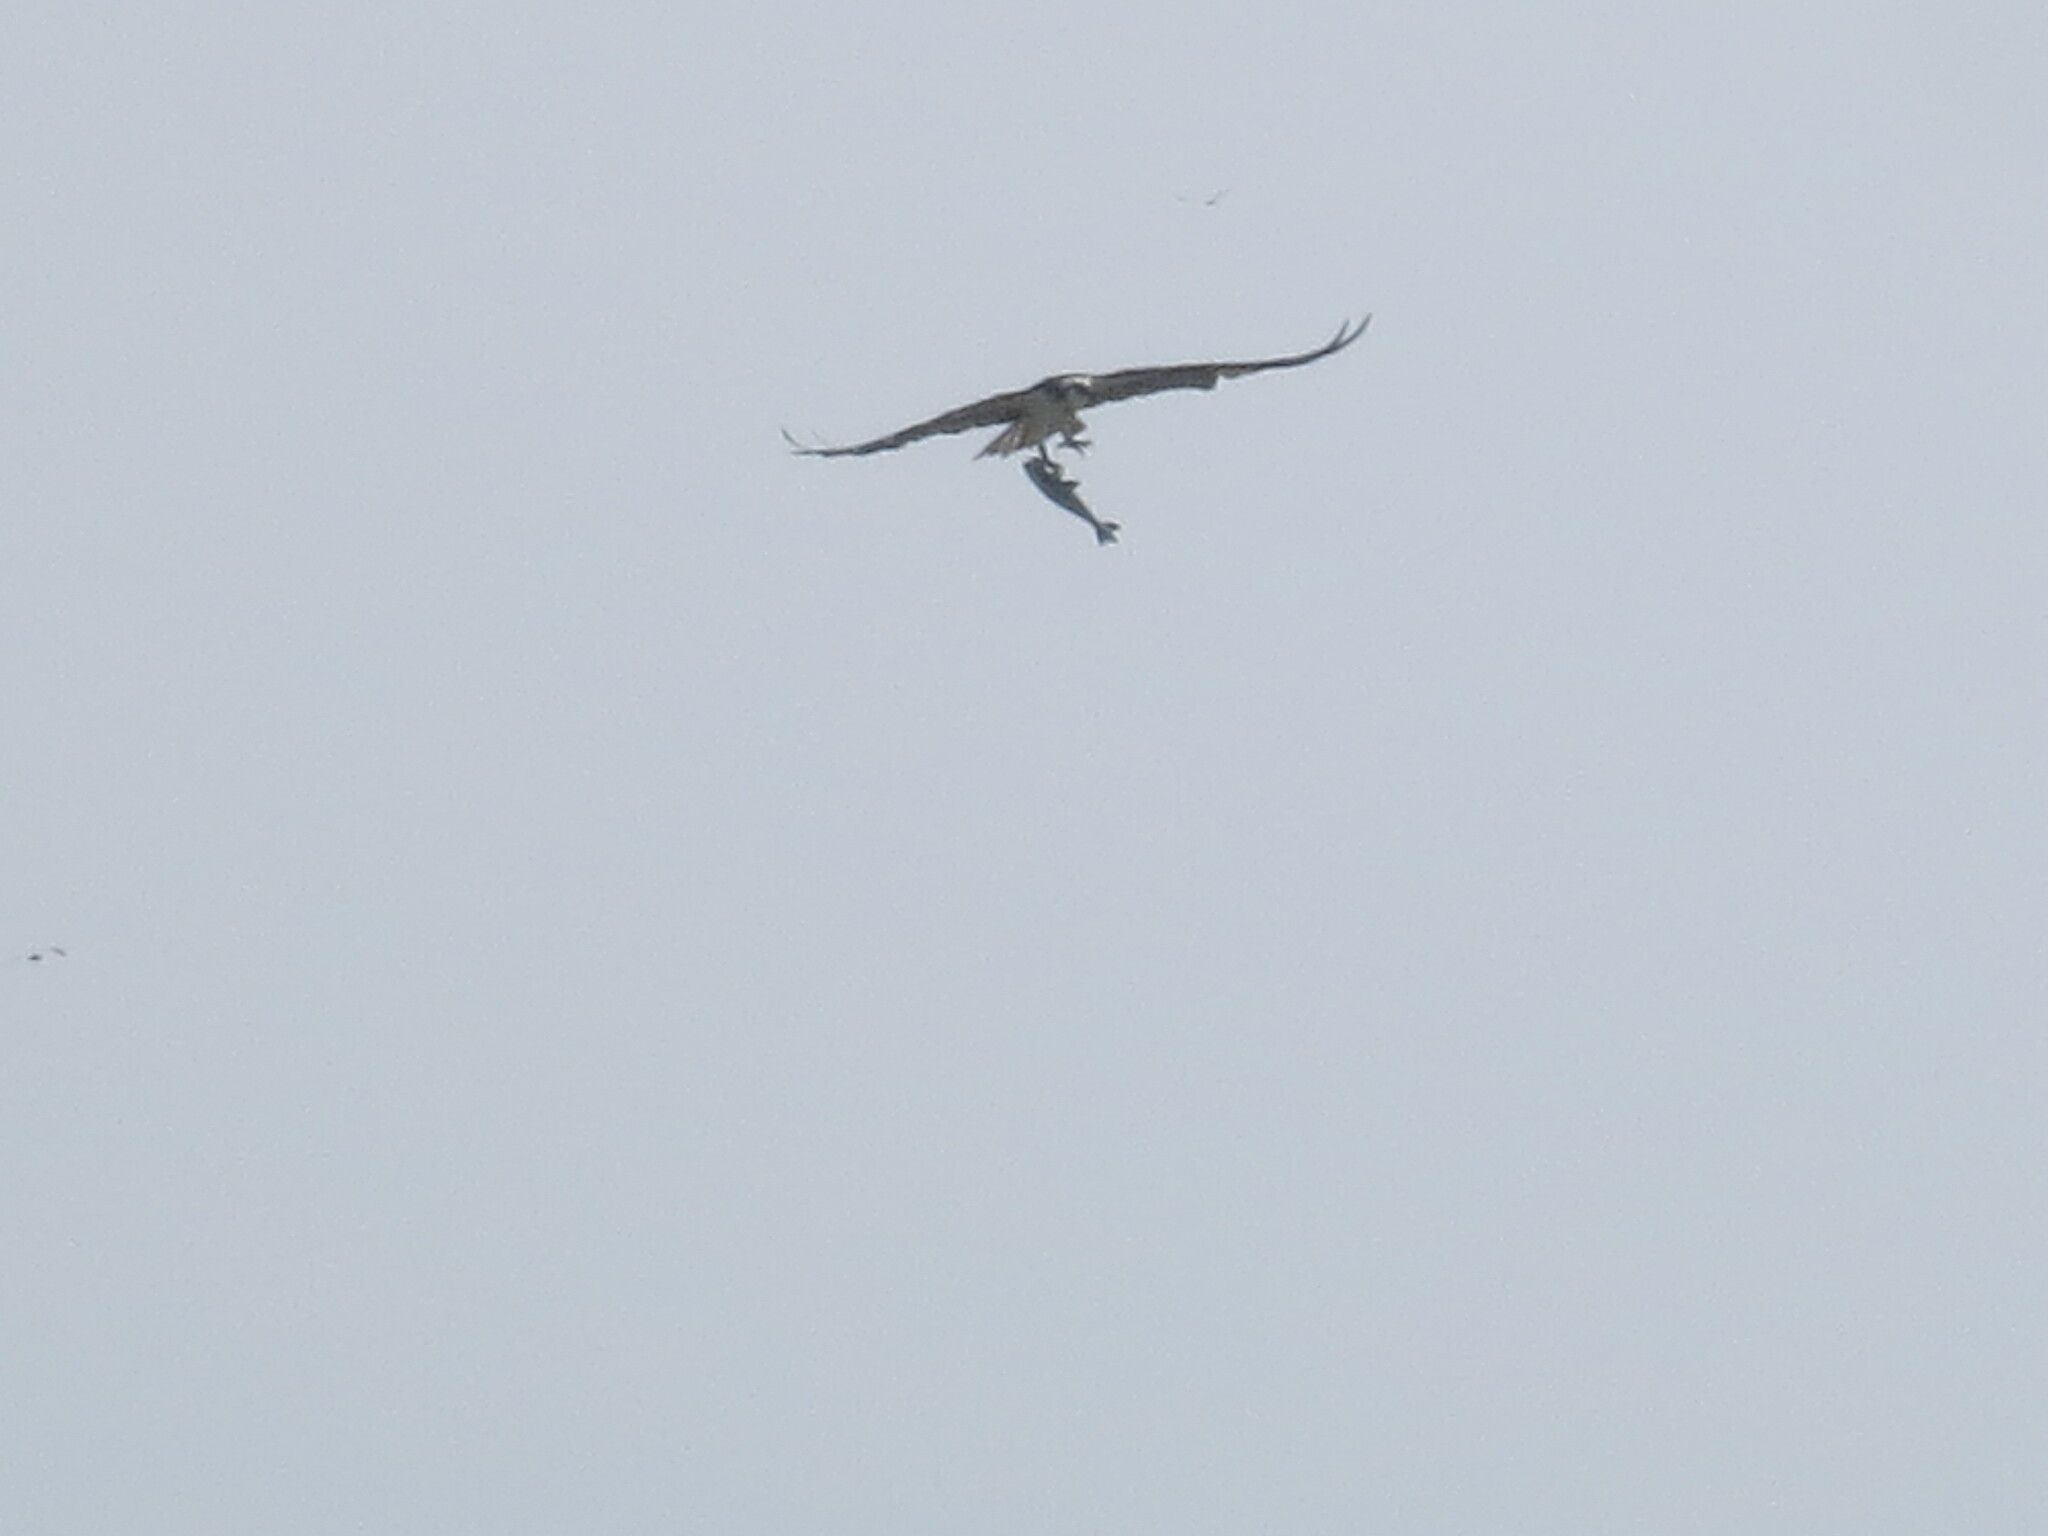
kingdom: Animalia
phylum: Chordata
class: Aves
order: Accipitriformes
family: Pandionidae
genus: Pandion
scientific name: Pandion haliaetus
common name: Osprey
